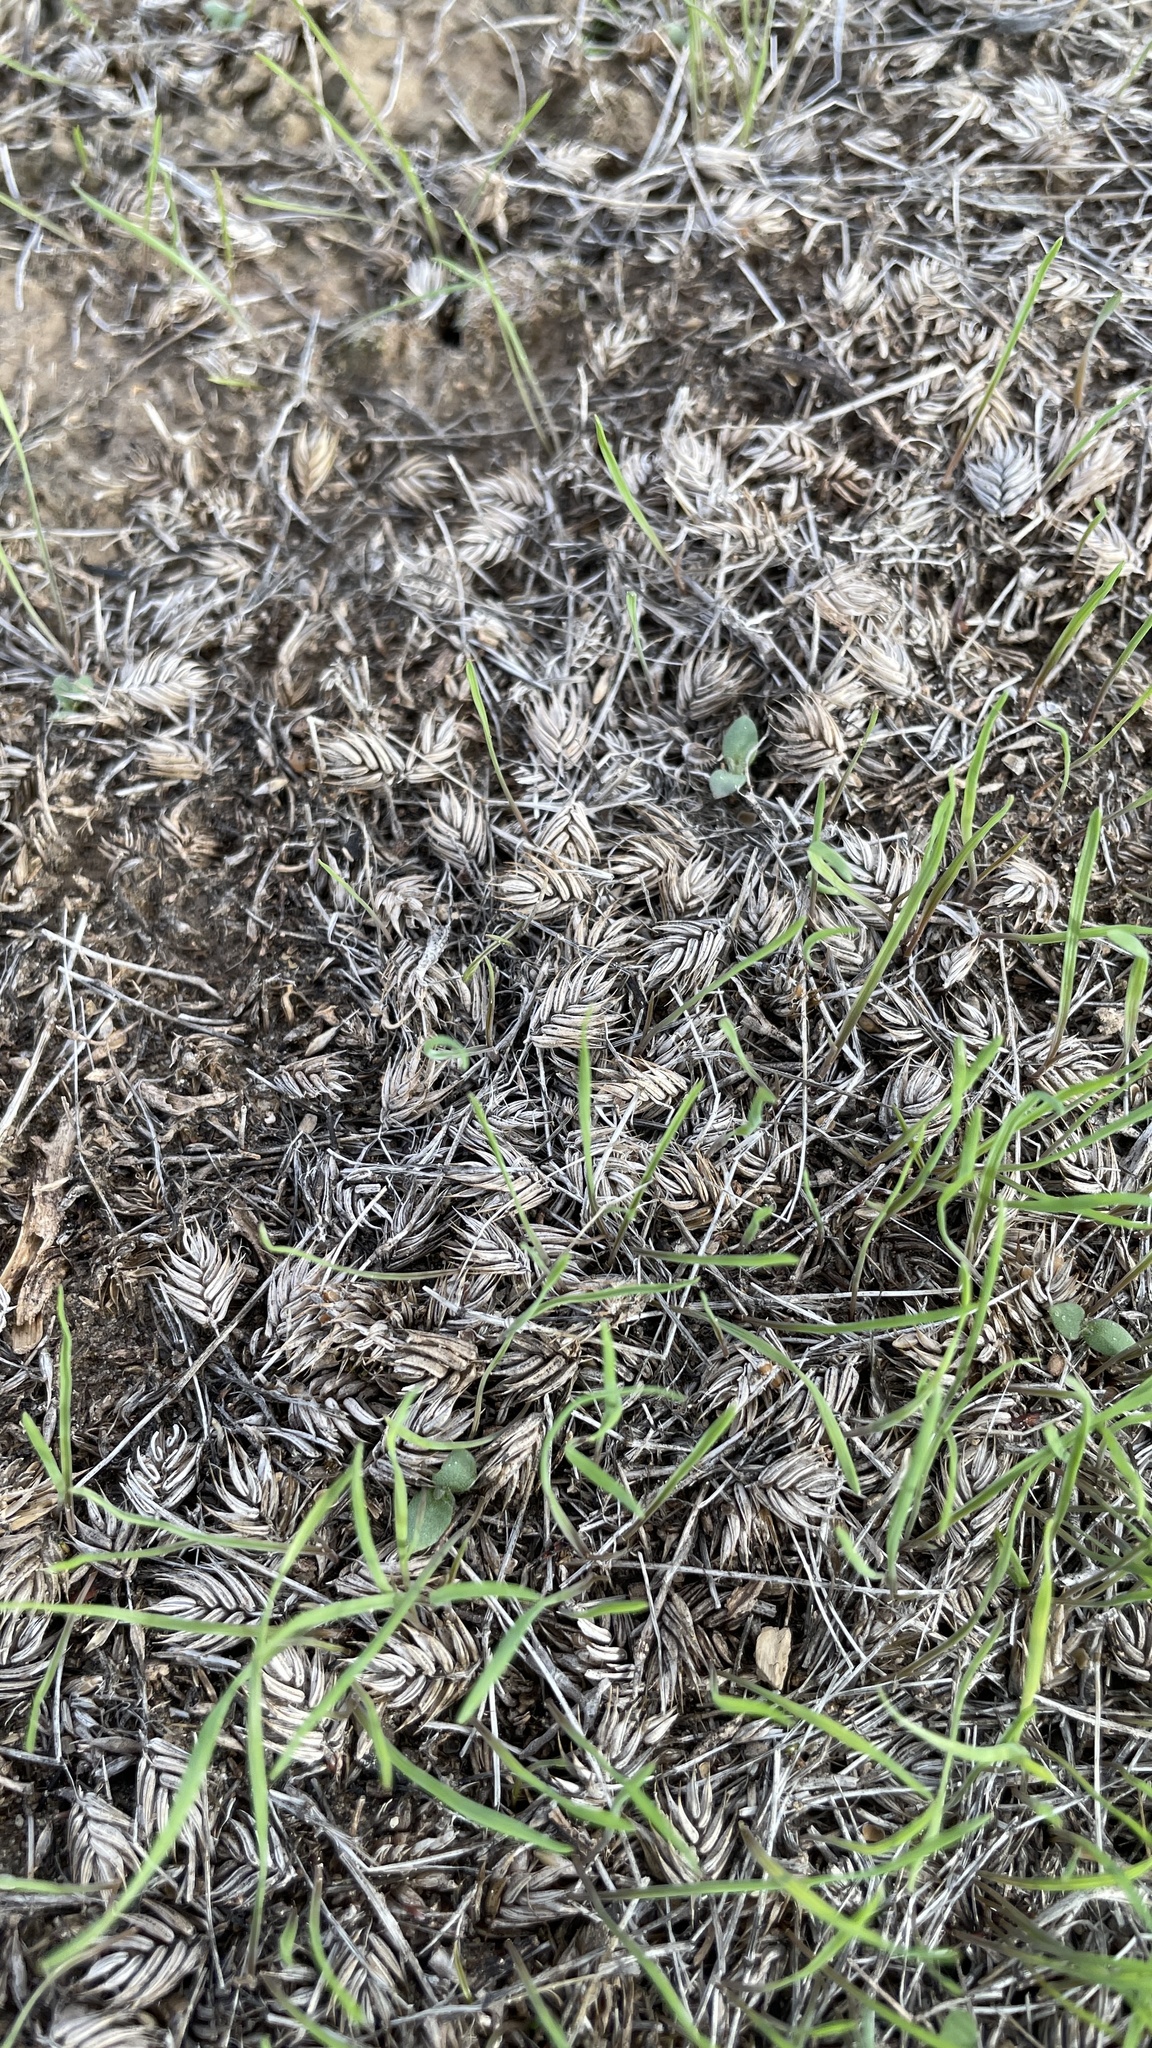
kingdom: Plantae
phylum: Tracheophyta
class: Liliopsida
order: Poales
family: Poaceae
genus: Eremopyrum
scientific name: Eremopyrum triticeum
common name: Annual wheatgrass
